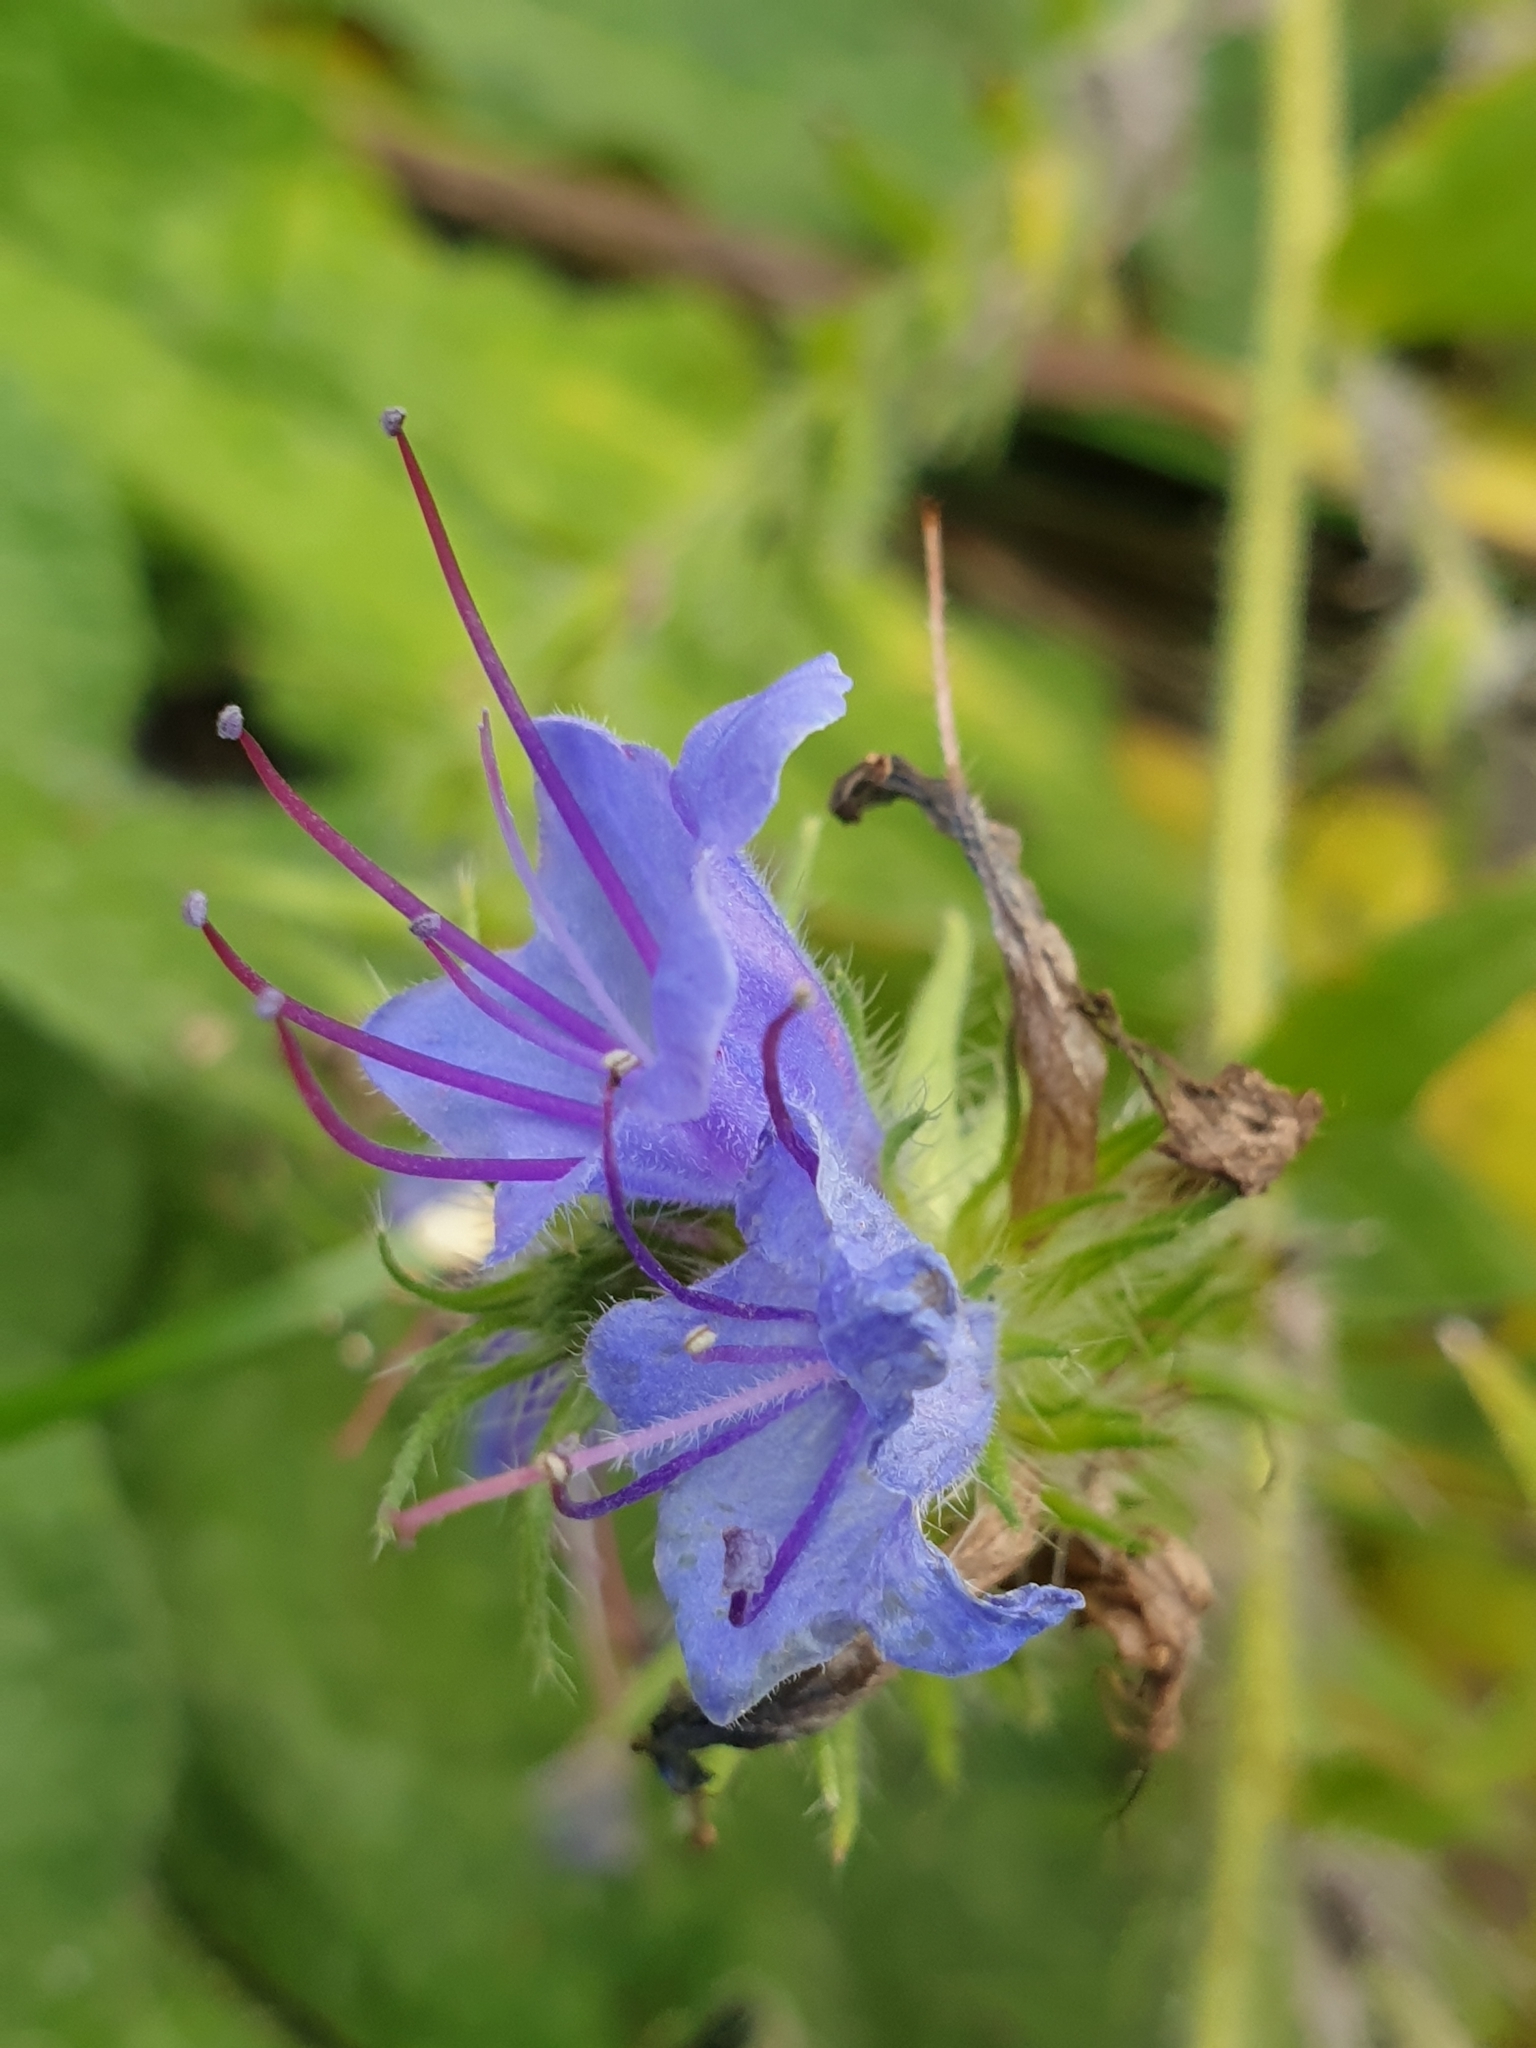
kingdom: Plantae
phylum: Tracheophyta
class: Magnoliopsida
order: Boraginales
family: Boraginaceae
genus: Echium
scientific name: Echium vulgare
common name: Common viper's bugloss
